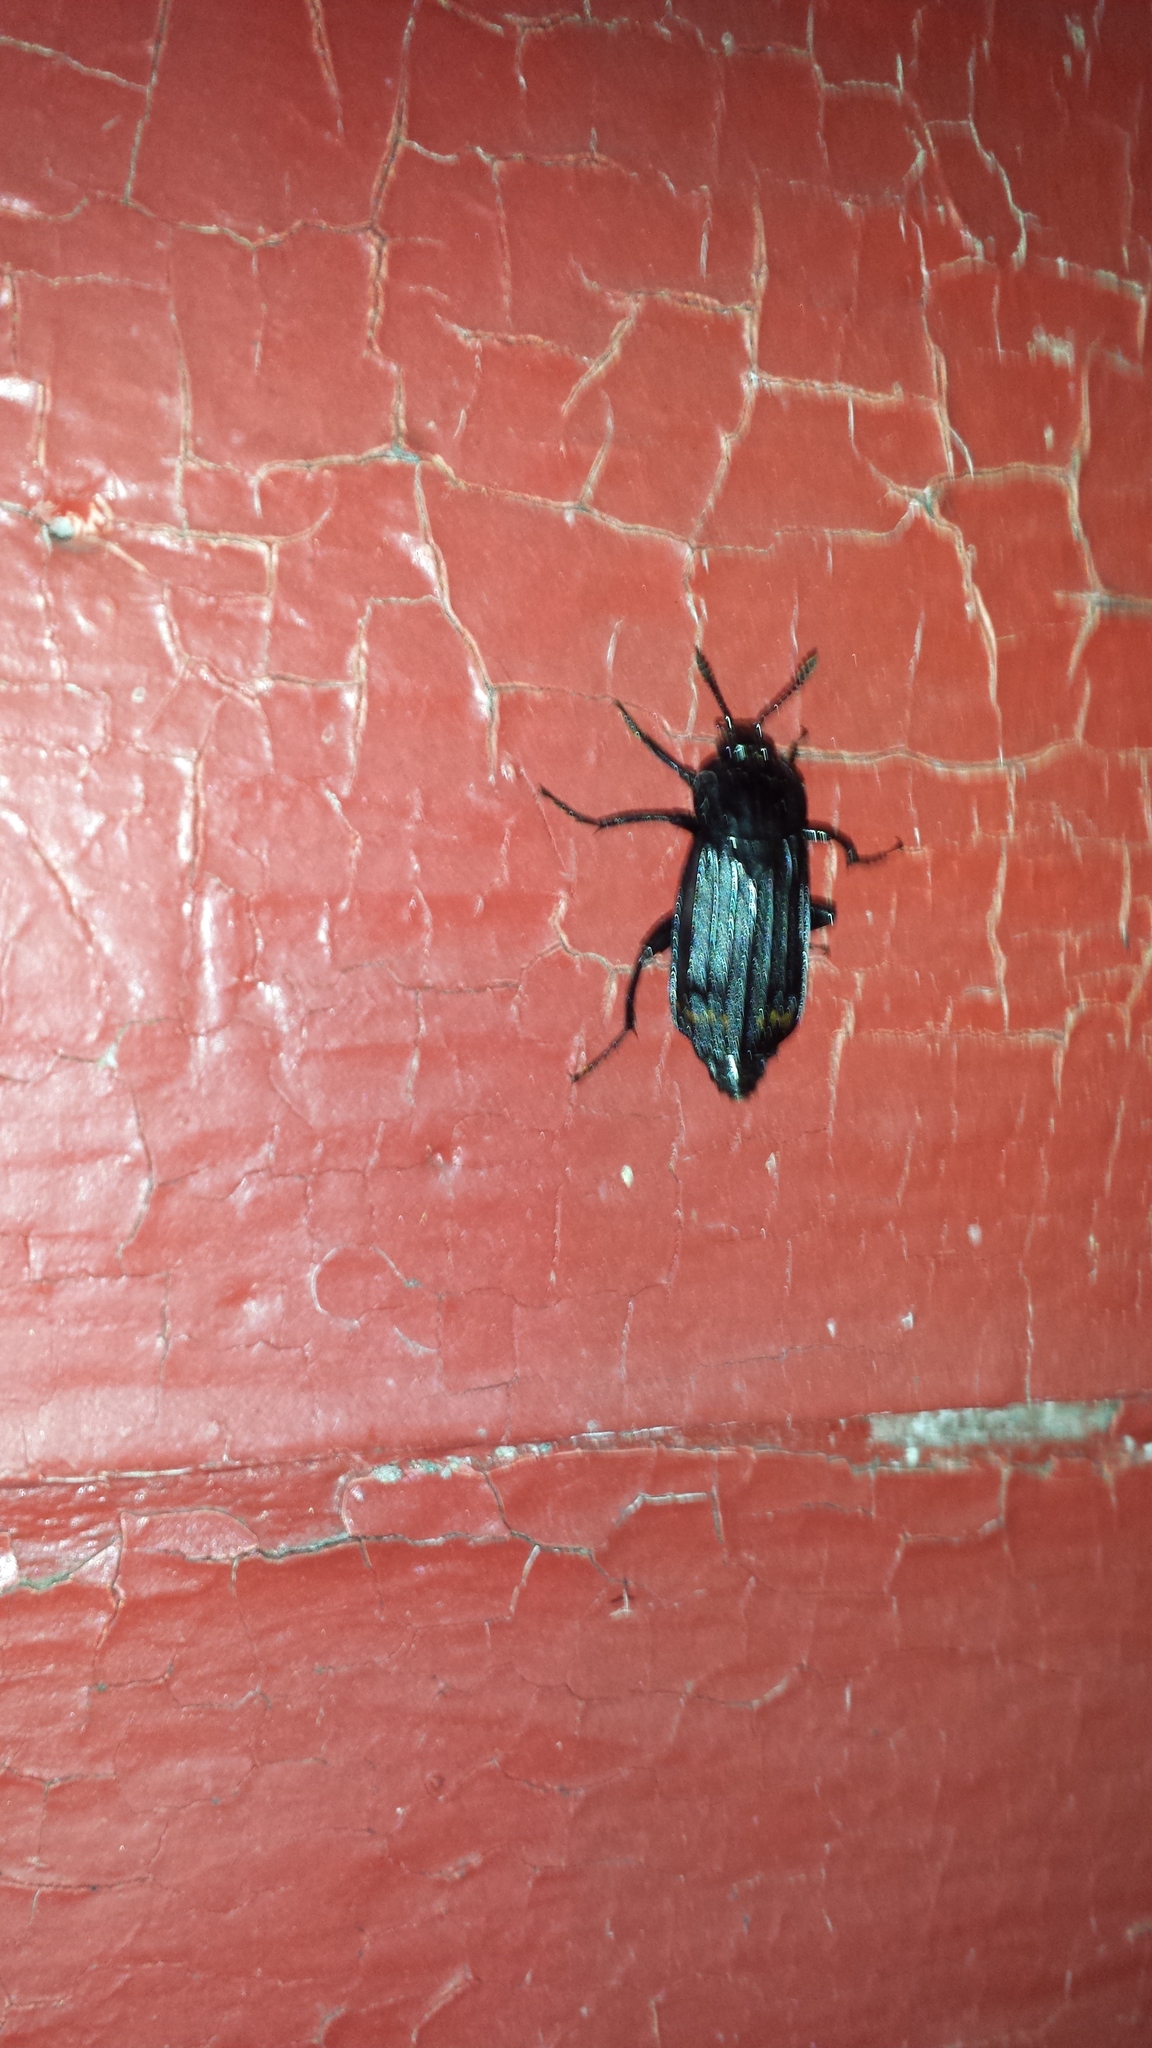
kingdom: Animalia
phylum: Arthropoda
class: Insecta
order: Coleoptera
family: Staphylinidae
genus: Necrodes
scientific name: Necrodes surinamensis
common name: Red-lined carrion beetle
